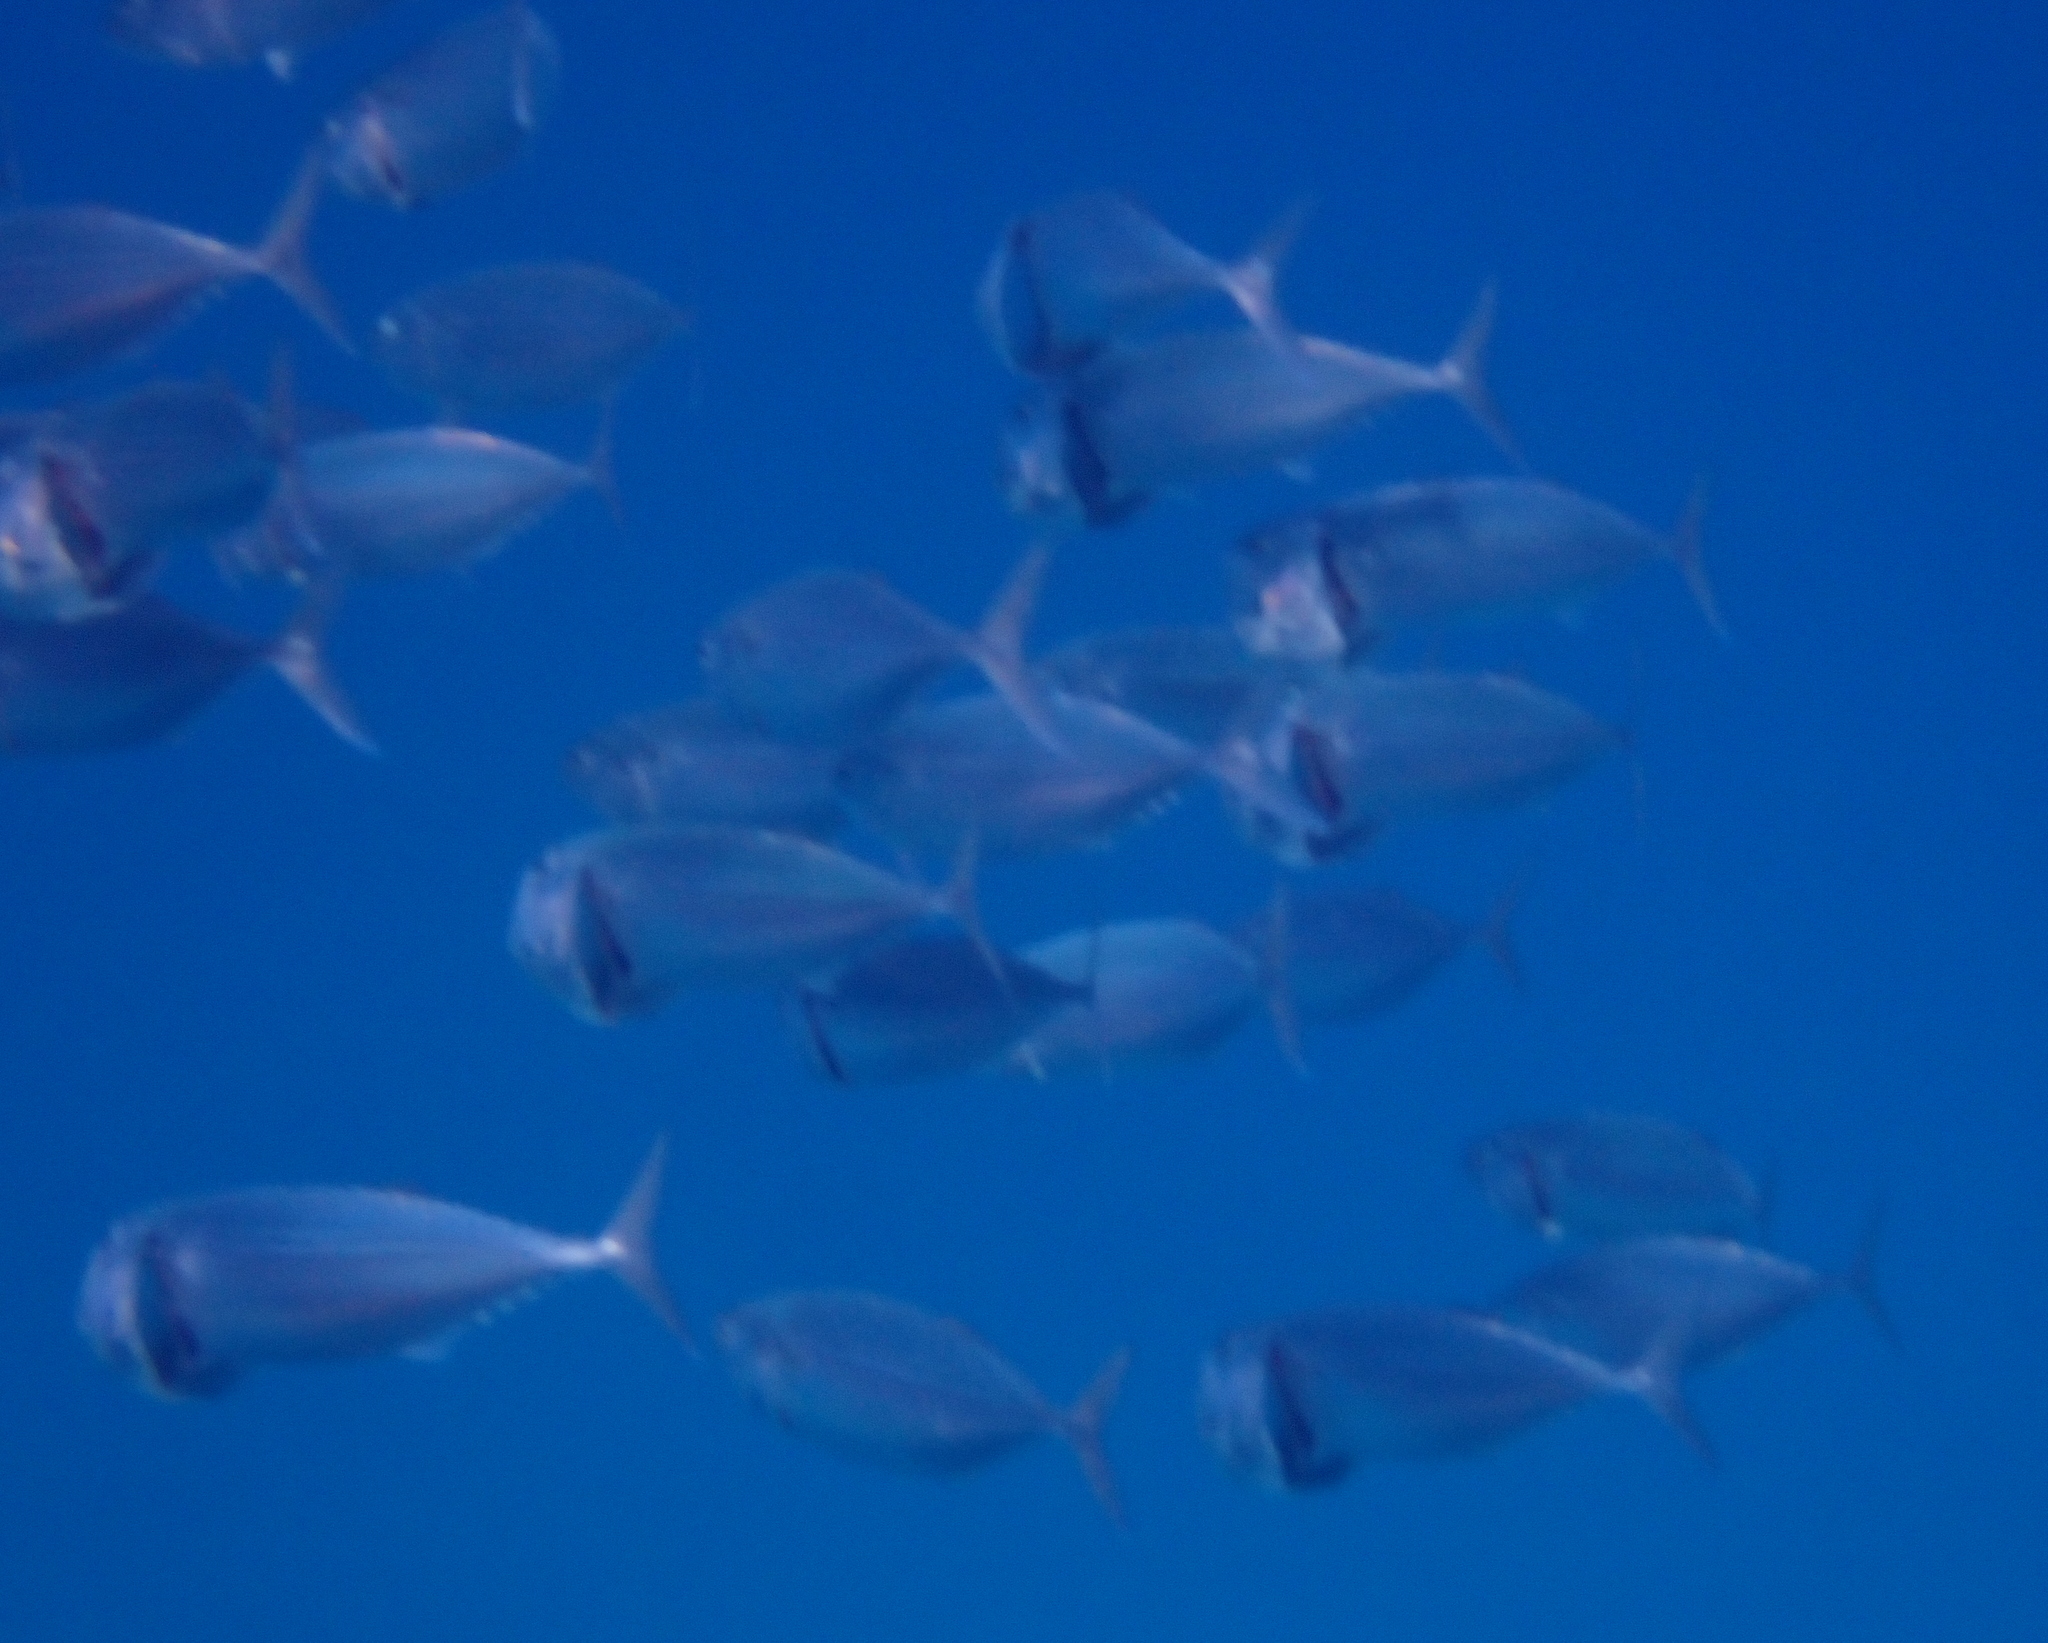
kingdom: Animalia
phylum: Chordata
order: Perciformes
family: Scombridae
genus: Rastrelliger
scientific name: Rastrelliger kanagurta
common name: Indian mackerel
